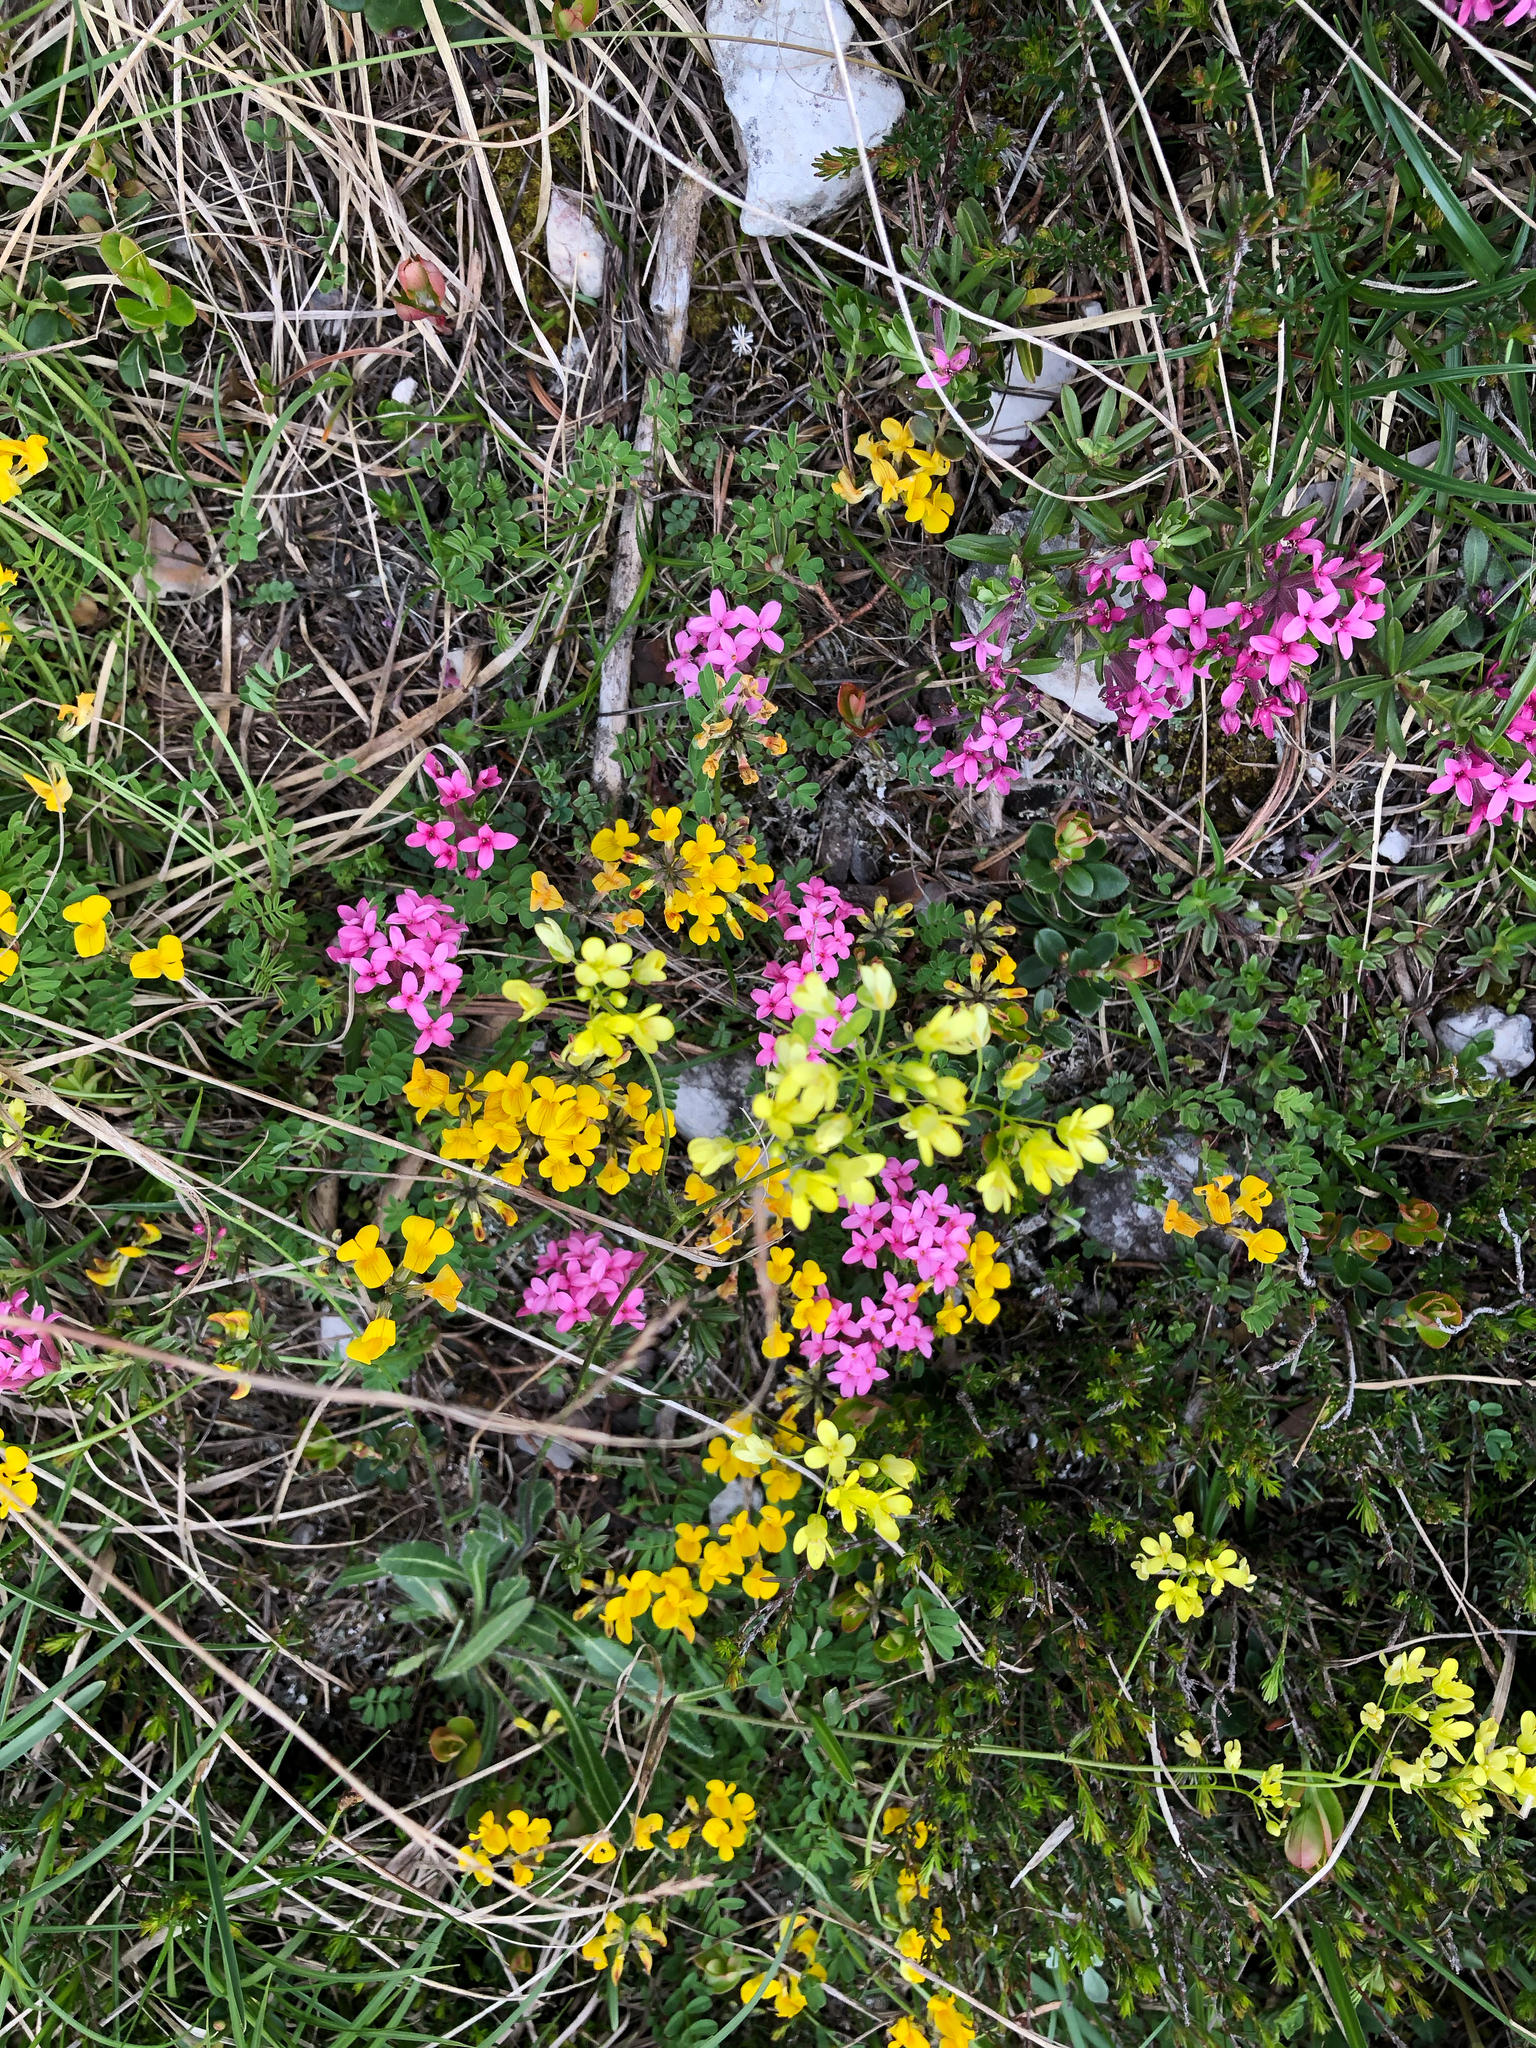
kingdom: Plantae
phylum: Tracheophyta
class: Magnoliopsida
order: Malvales
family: Thymelaeaceae
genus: Daphne
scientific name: Daphne cneorum
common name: Garland-flower
